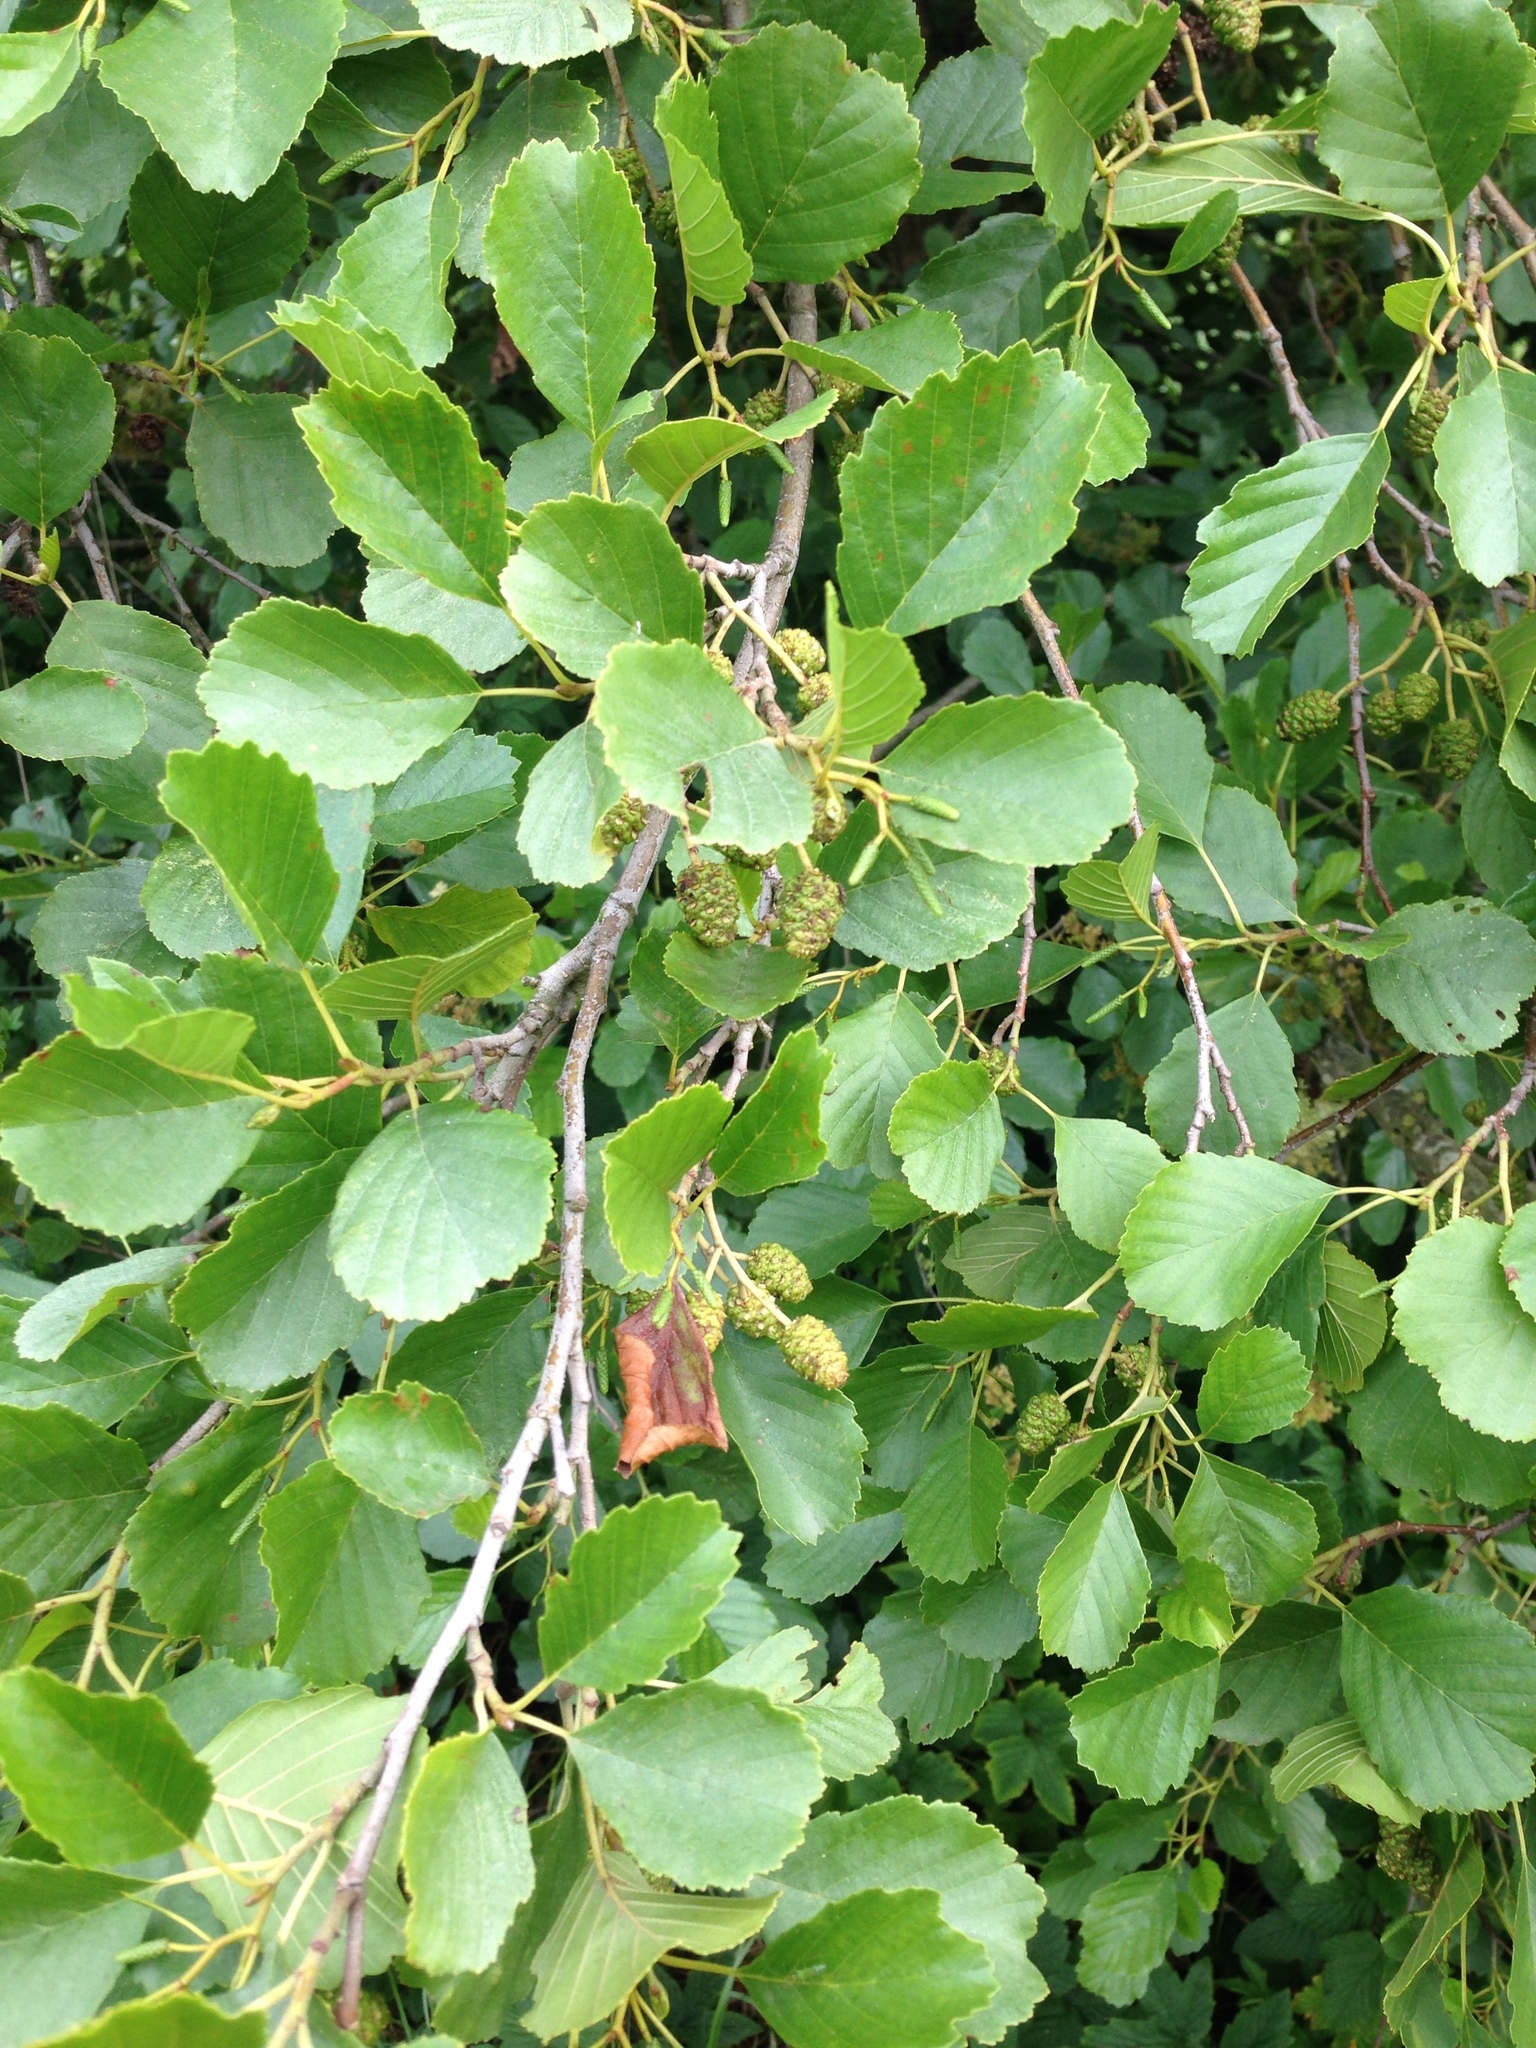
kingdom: Plantae
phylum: Tracheophyta
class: Magnoliopsida
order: Fagales
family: Betulaceae
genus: Alnus
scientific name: Alnus glutinosa
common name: Black alder
